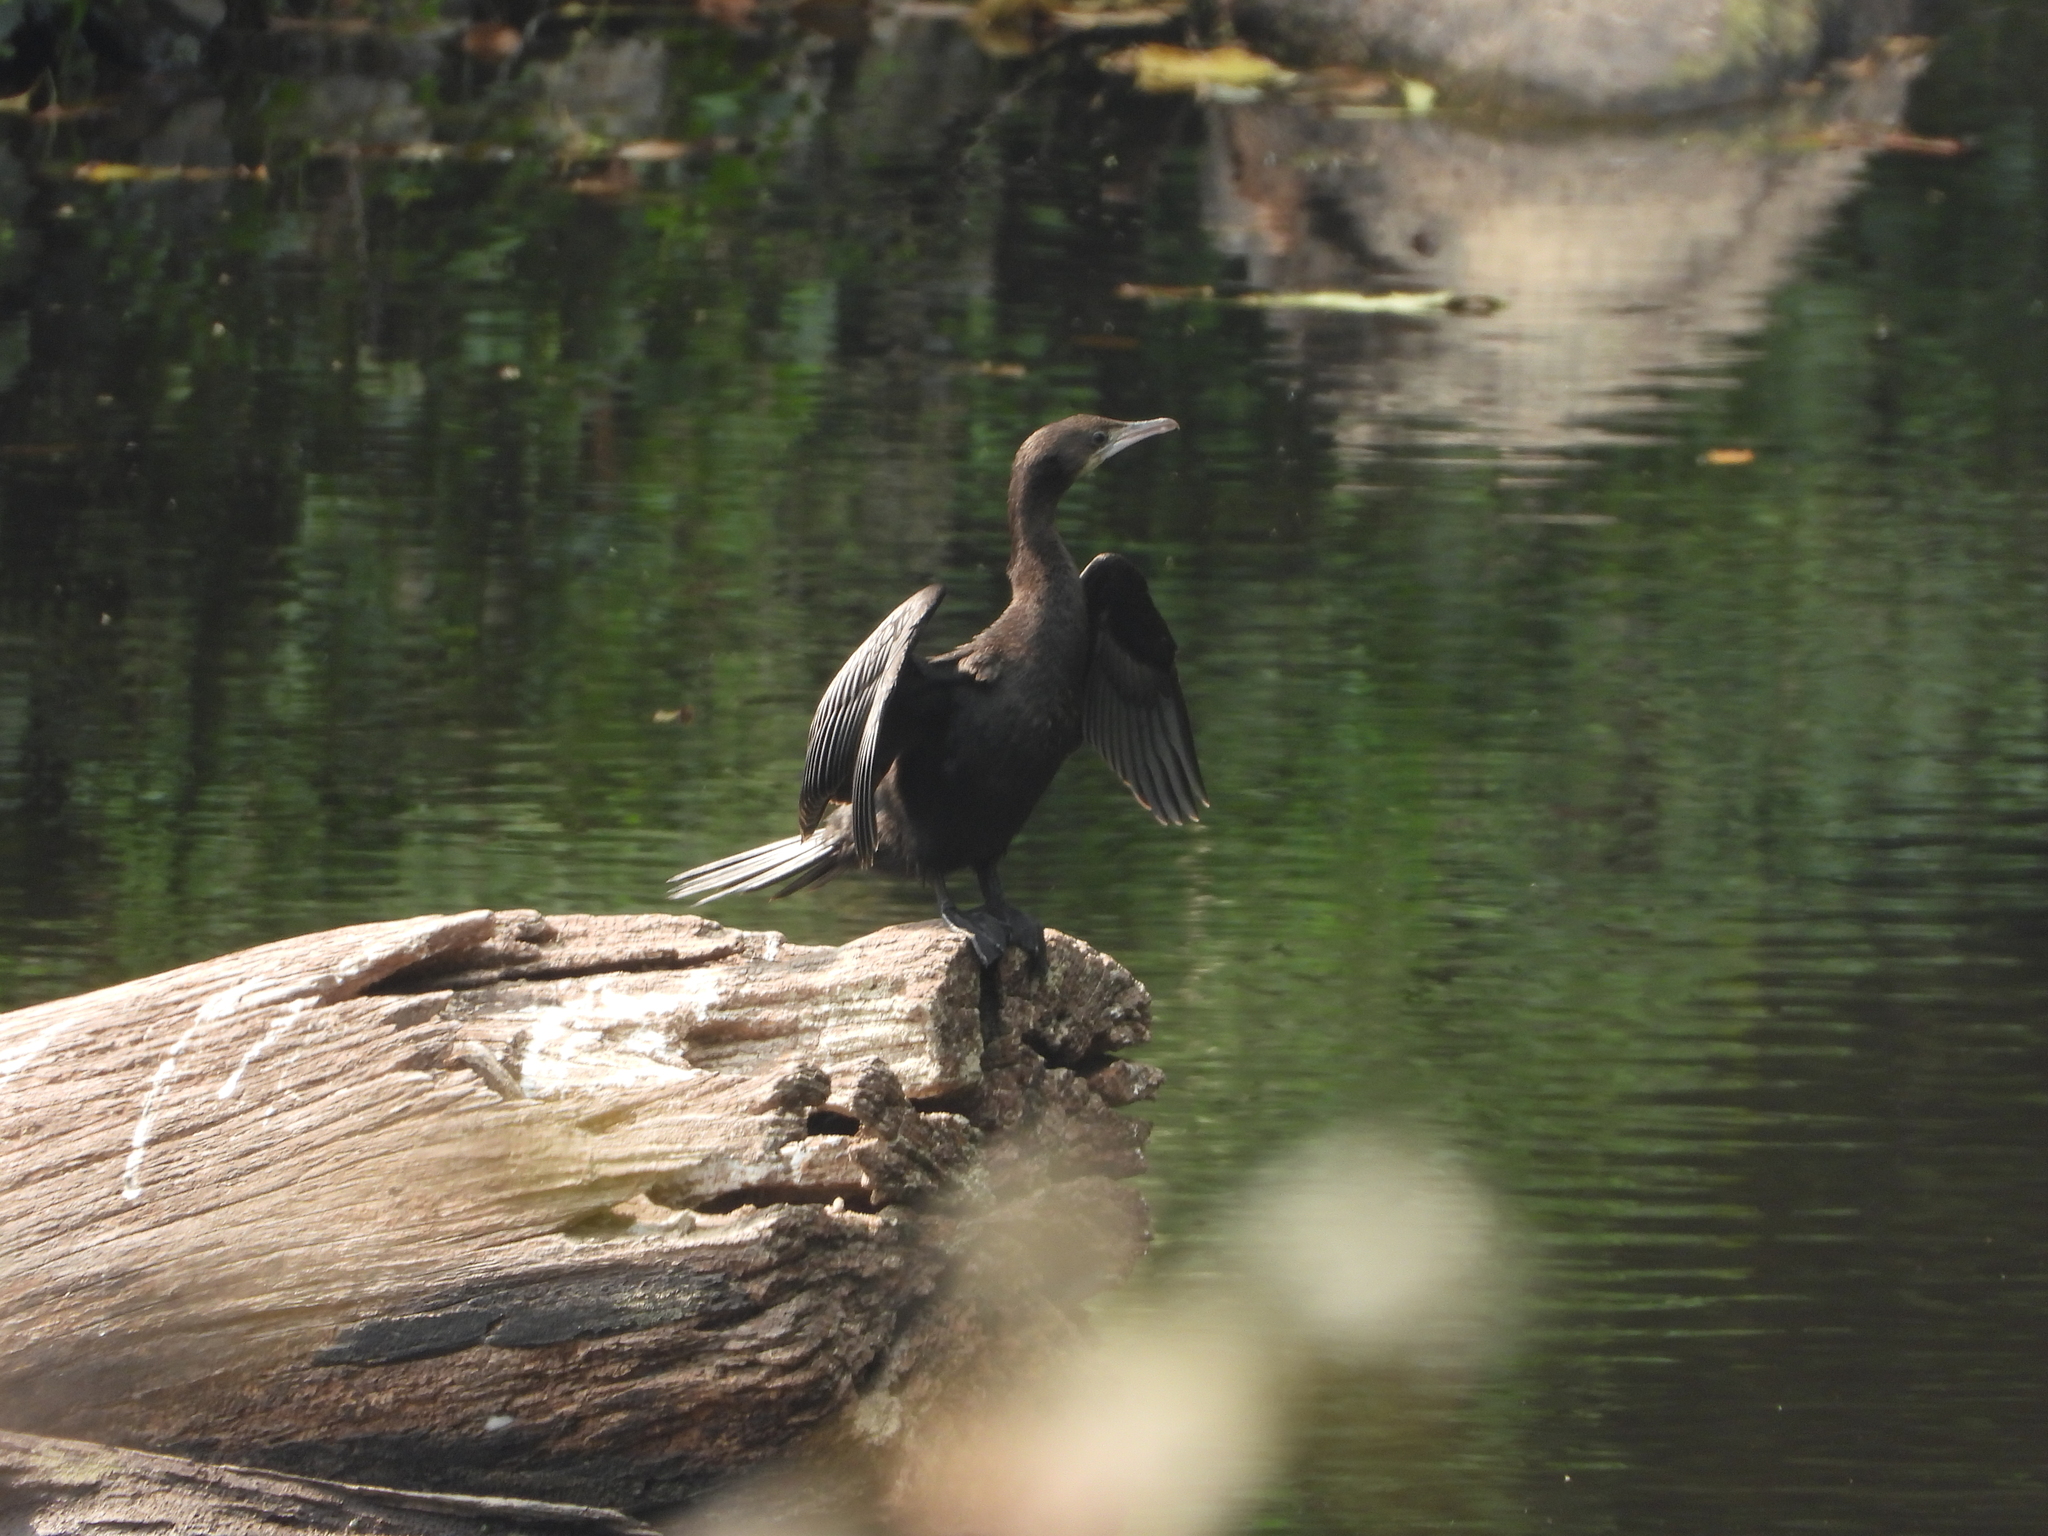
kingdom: Animalia
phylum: Chordata
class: Aves
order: Suliformes
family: Phalacrocoracidae
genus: Microcarbo
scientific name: Microcarbo niger
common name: Little cormorant
